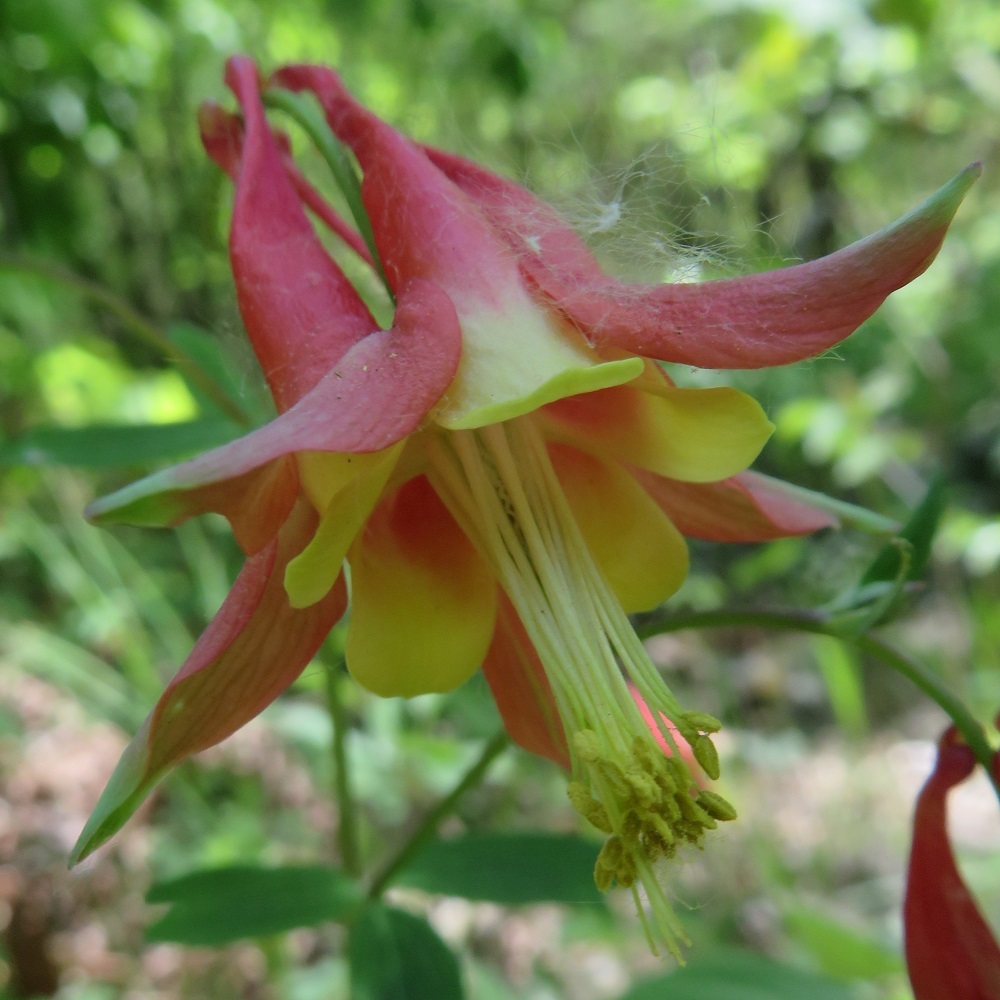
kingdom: Plantae
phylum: Tracheophyta
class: Magnoliopsida
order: Ranunculales
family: Ranunculaceae
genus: Aquilegia
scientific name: Aquilegia canadensis
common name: American columbine
